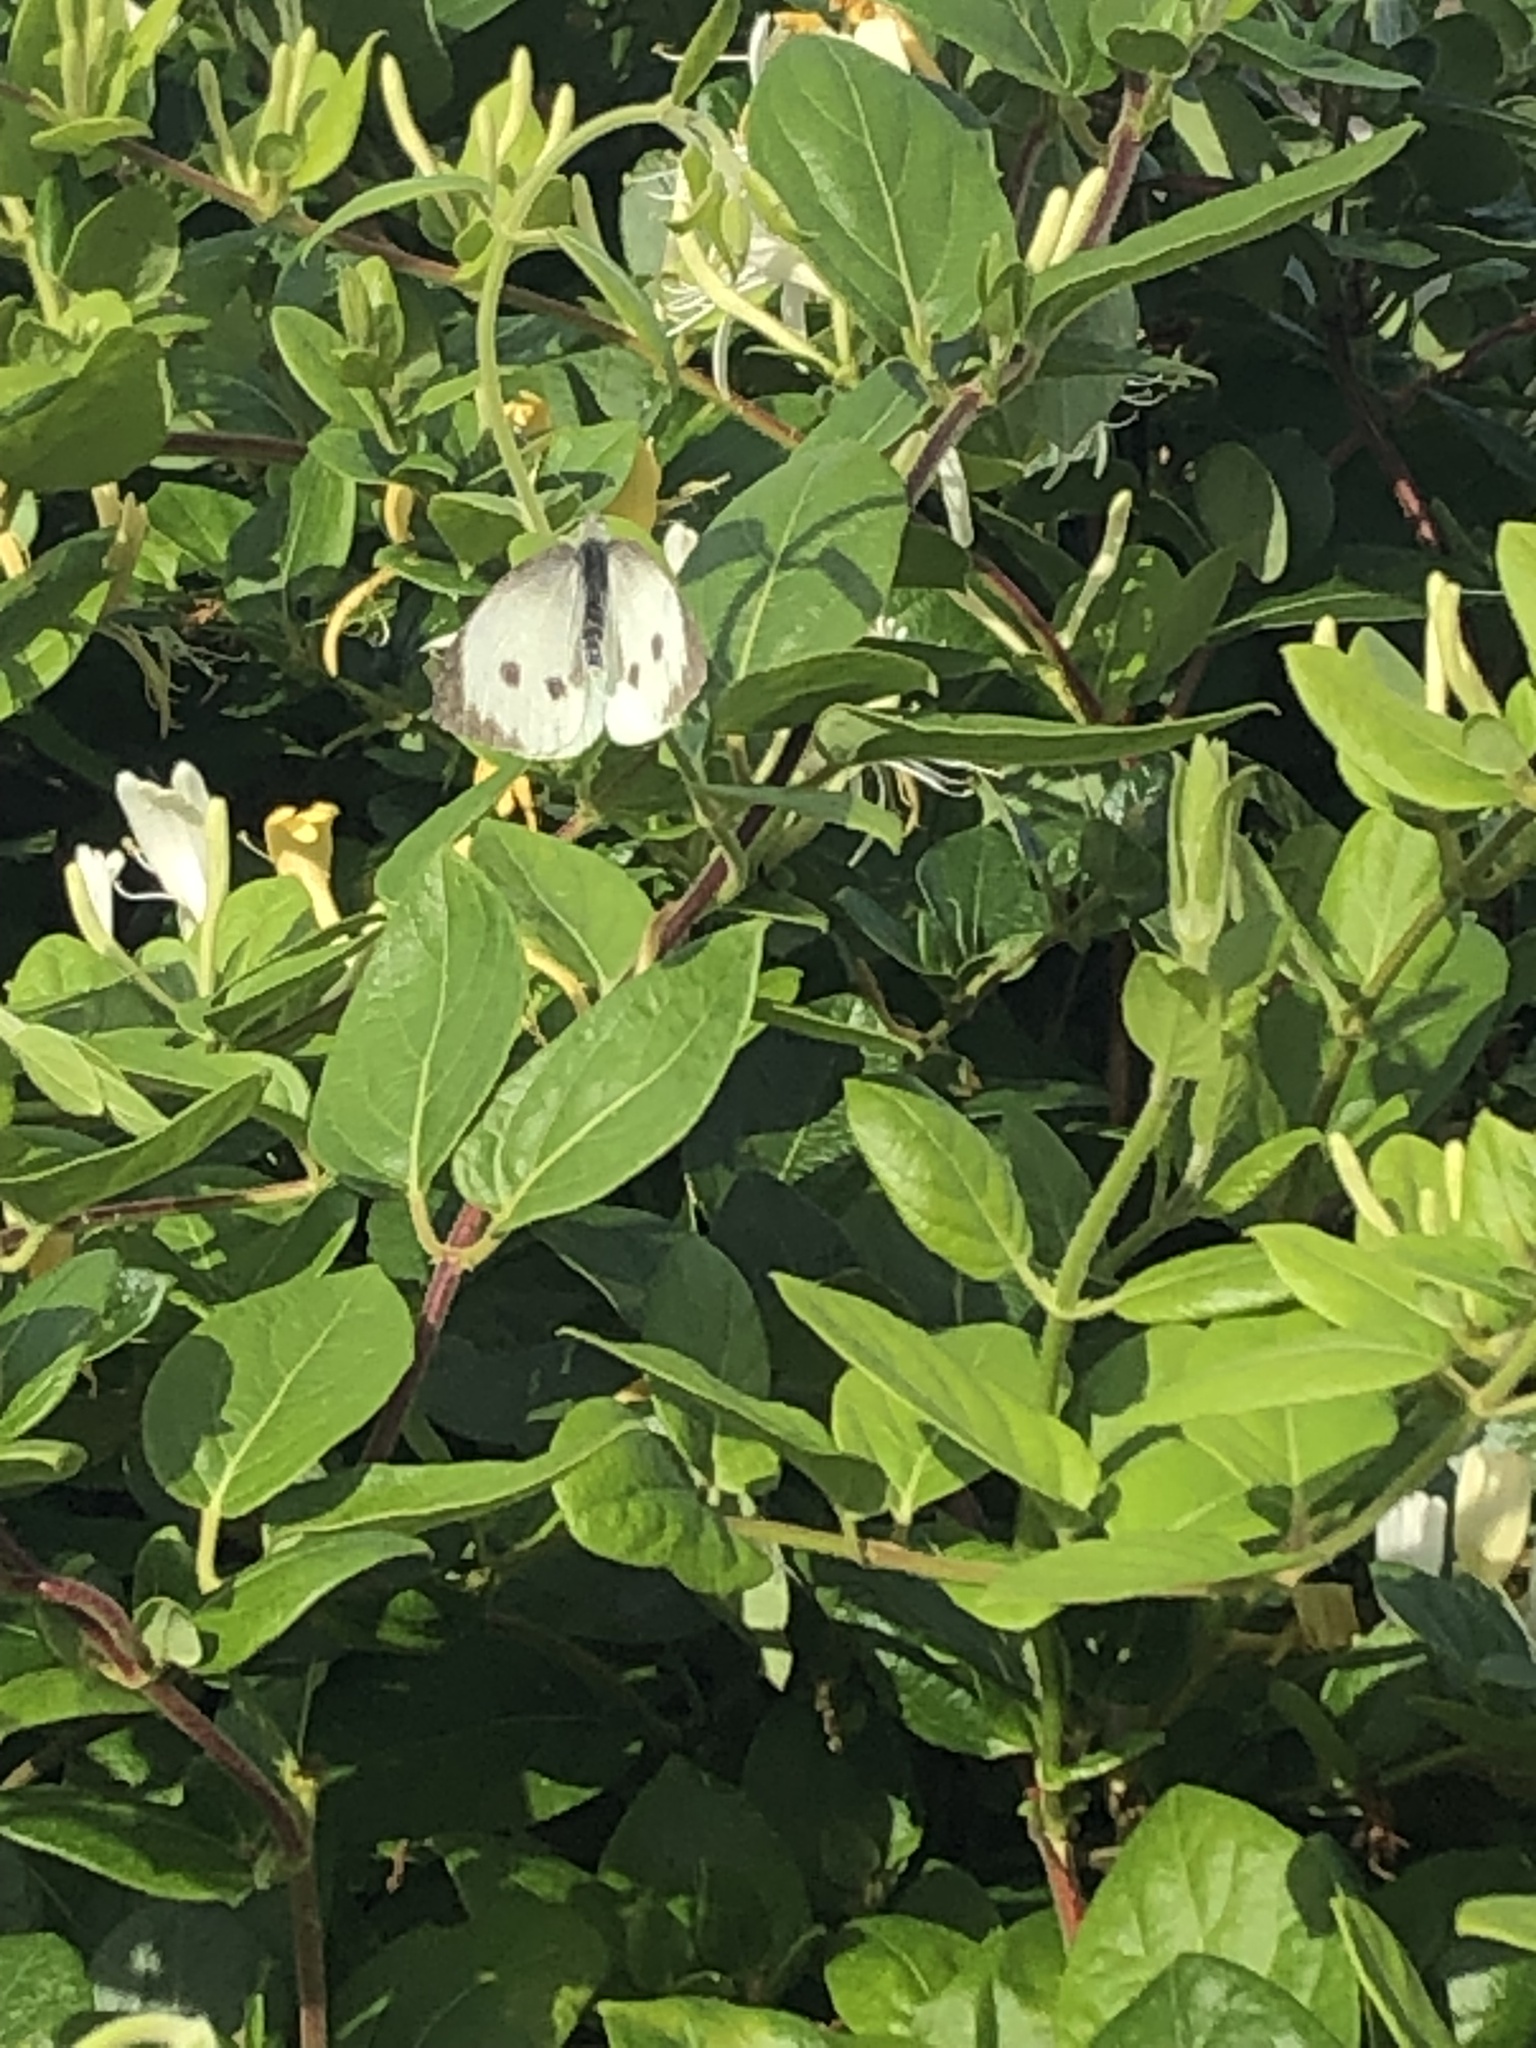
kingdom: Animalia
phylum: Arthropoda
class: Insecta
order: Lepidoptera
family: Pieridae
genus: Pieris
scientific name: Pieris brassicae
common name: Large white
